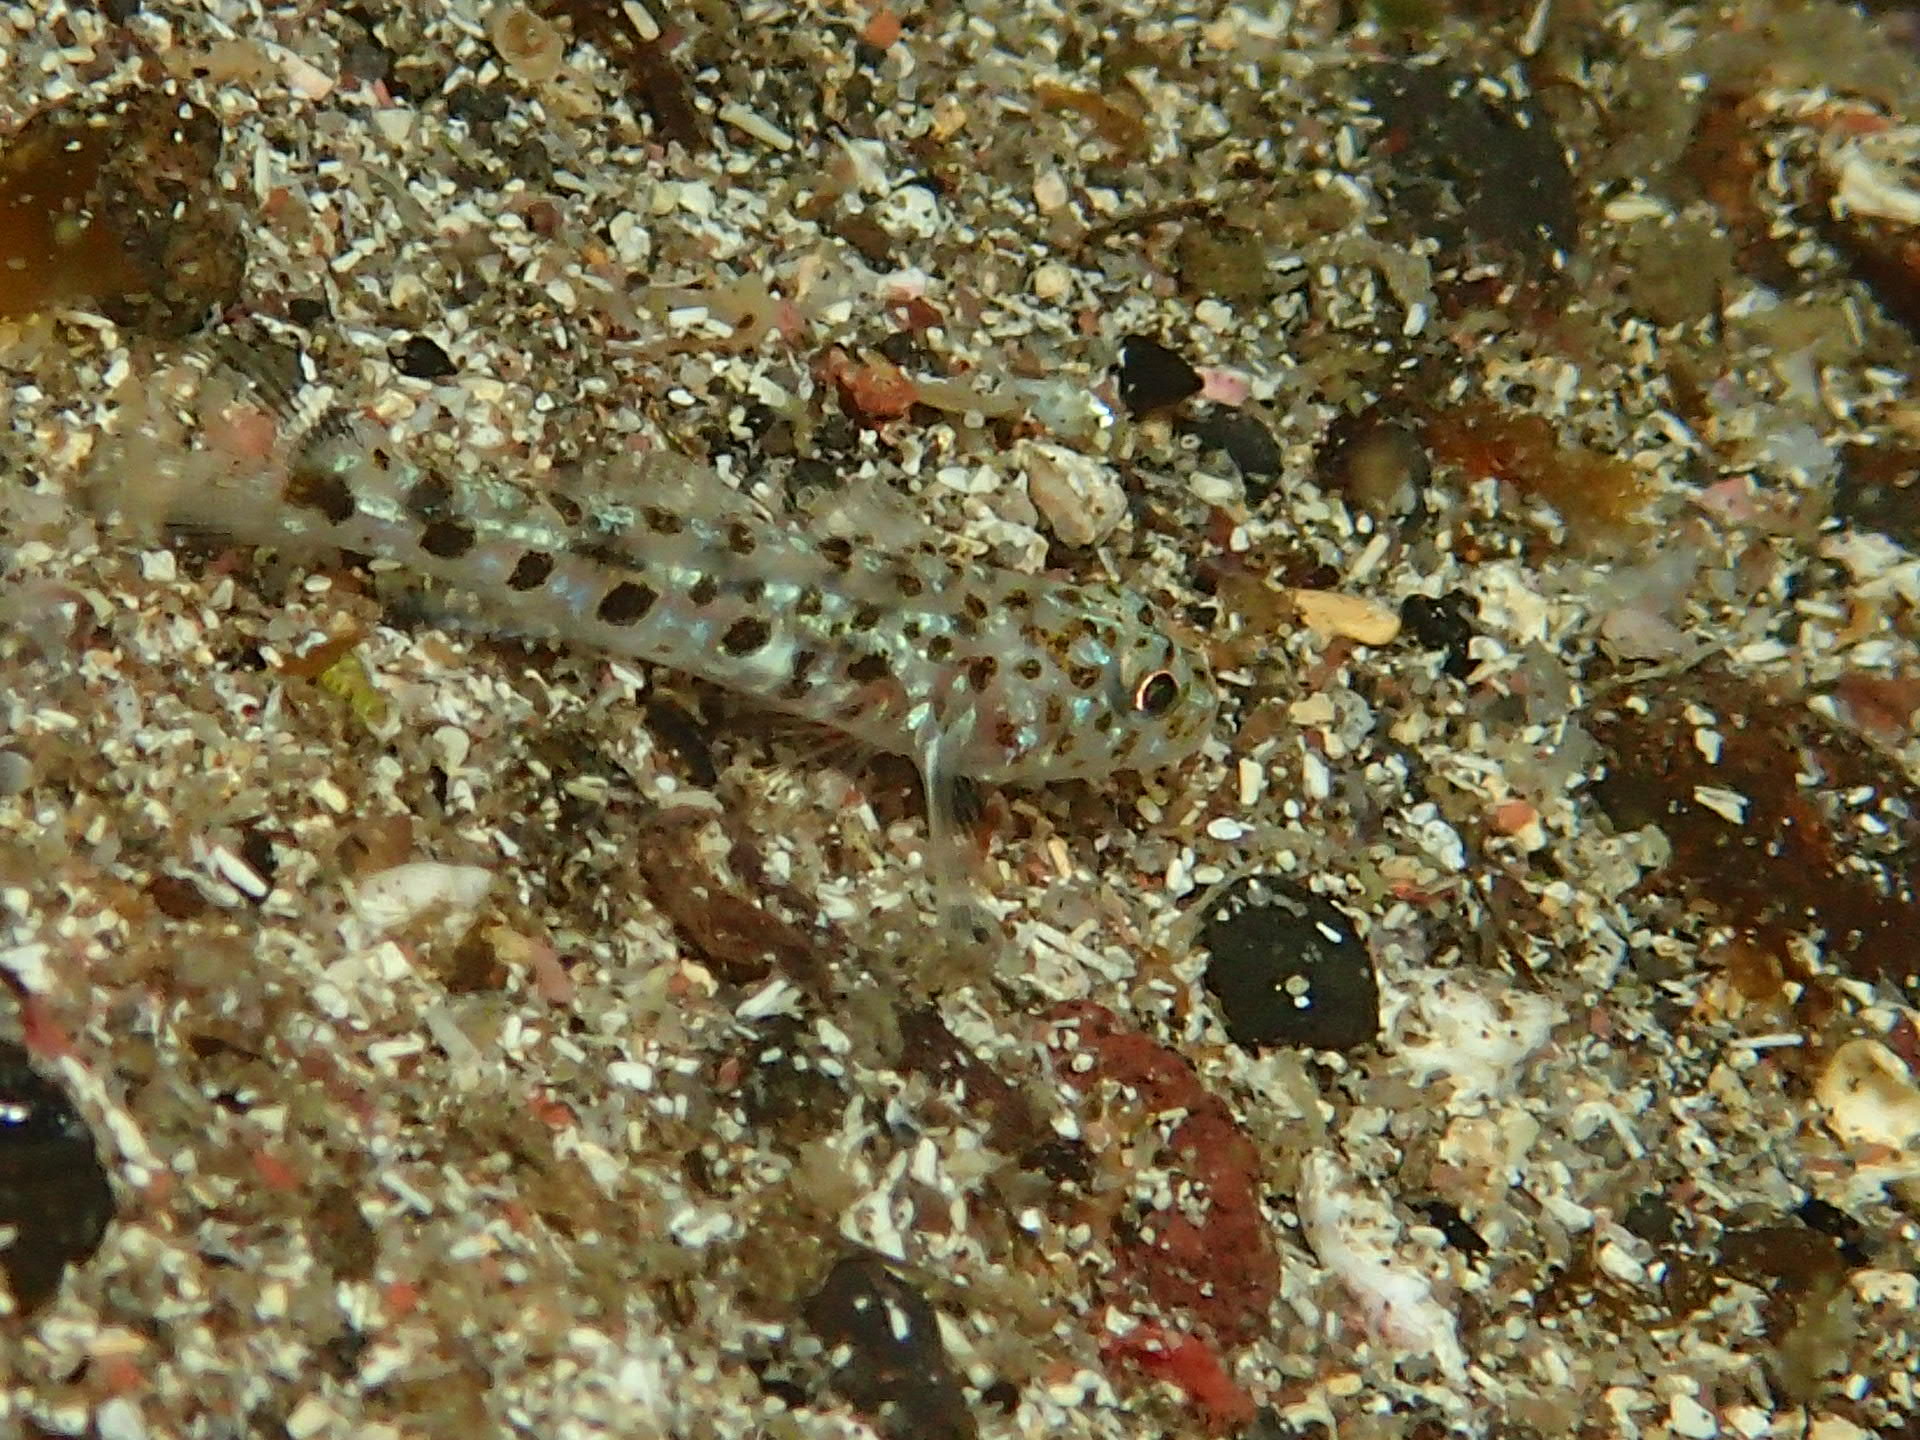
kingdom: Animalia
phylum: Chordata
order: Perciformes
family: Gobiidae
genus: Thorogobius
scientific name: Thorogobius ephippiatus
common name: Leopard-spotted goby
